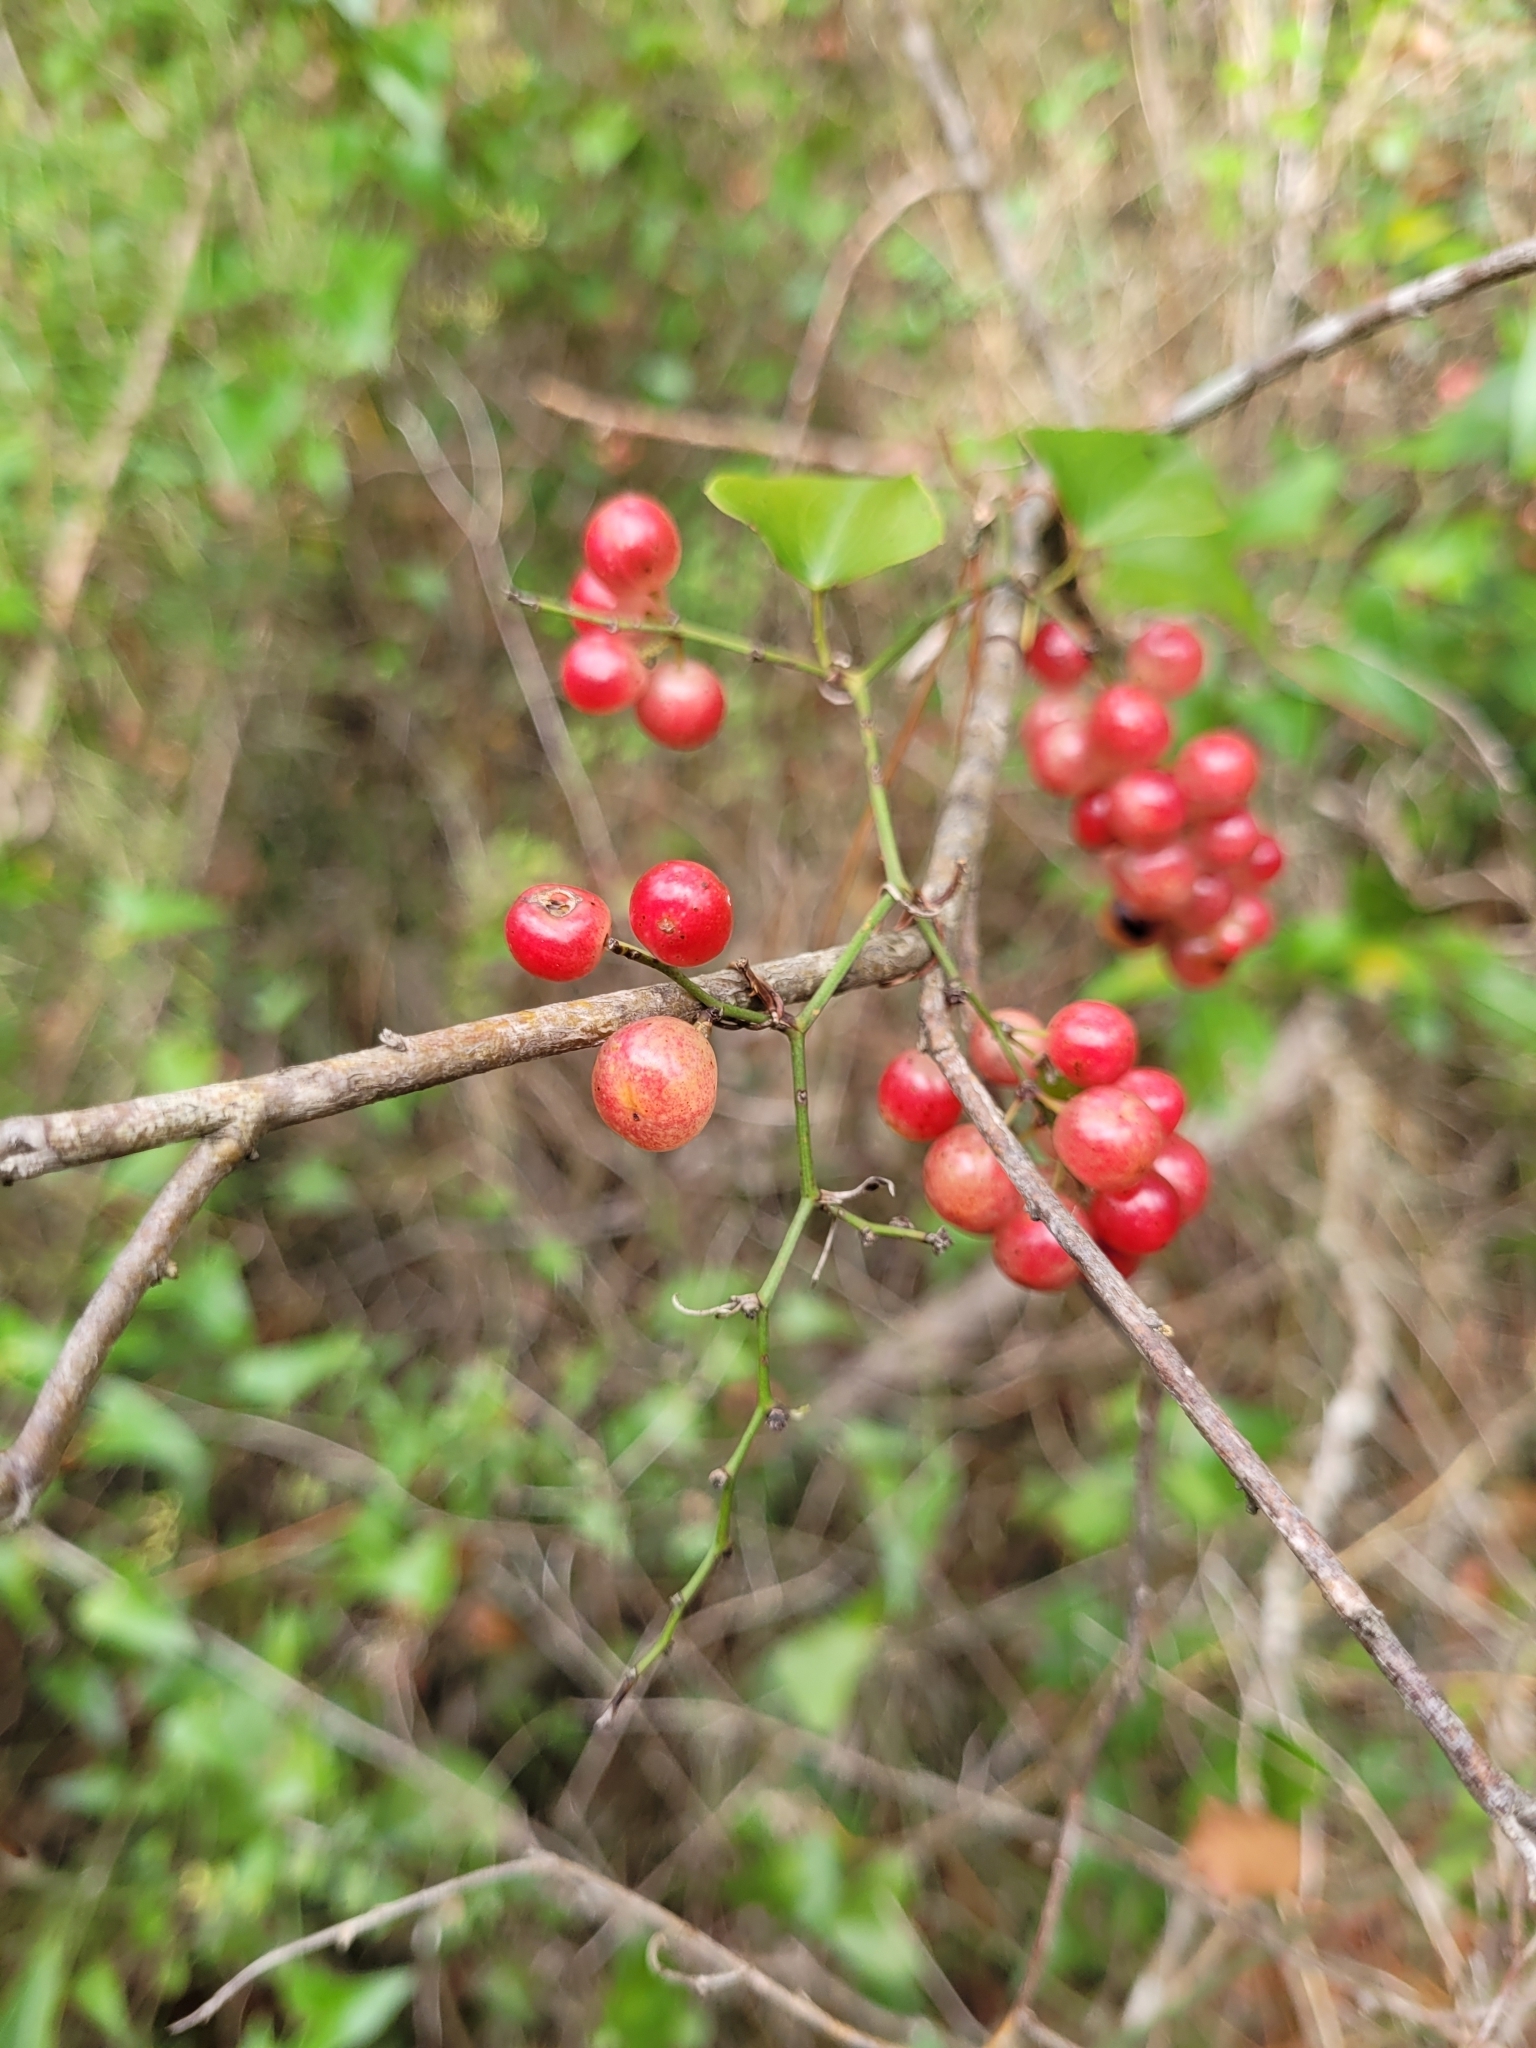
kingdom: Plantae
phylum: Tracheophyta
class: Liliopsida
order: Liliales
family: Smilacaceae
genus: Smilax
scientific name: Smilax aspera
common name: Common smilax
